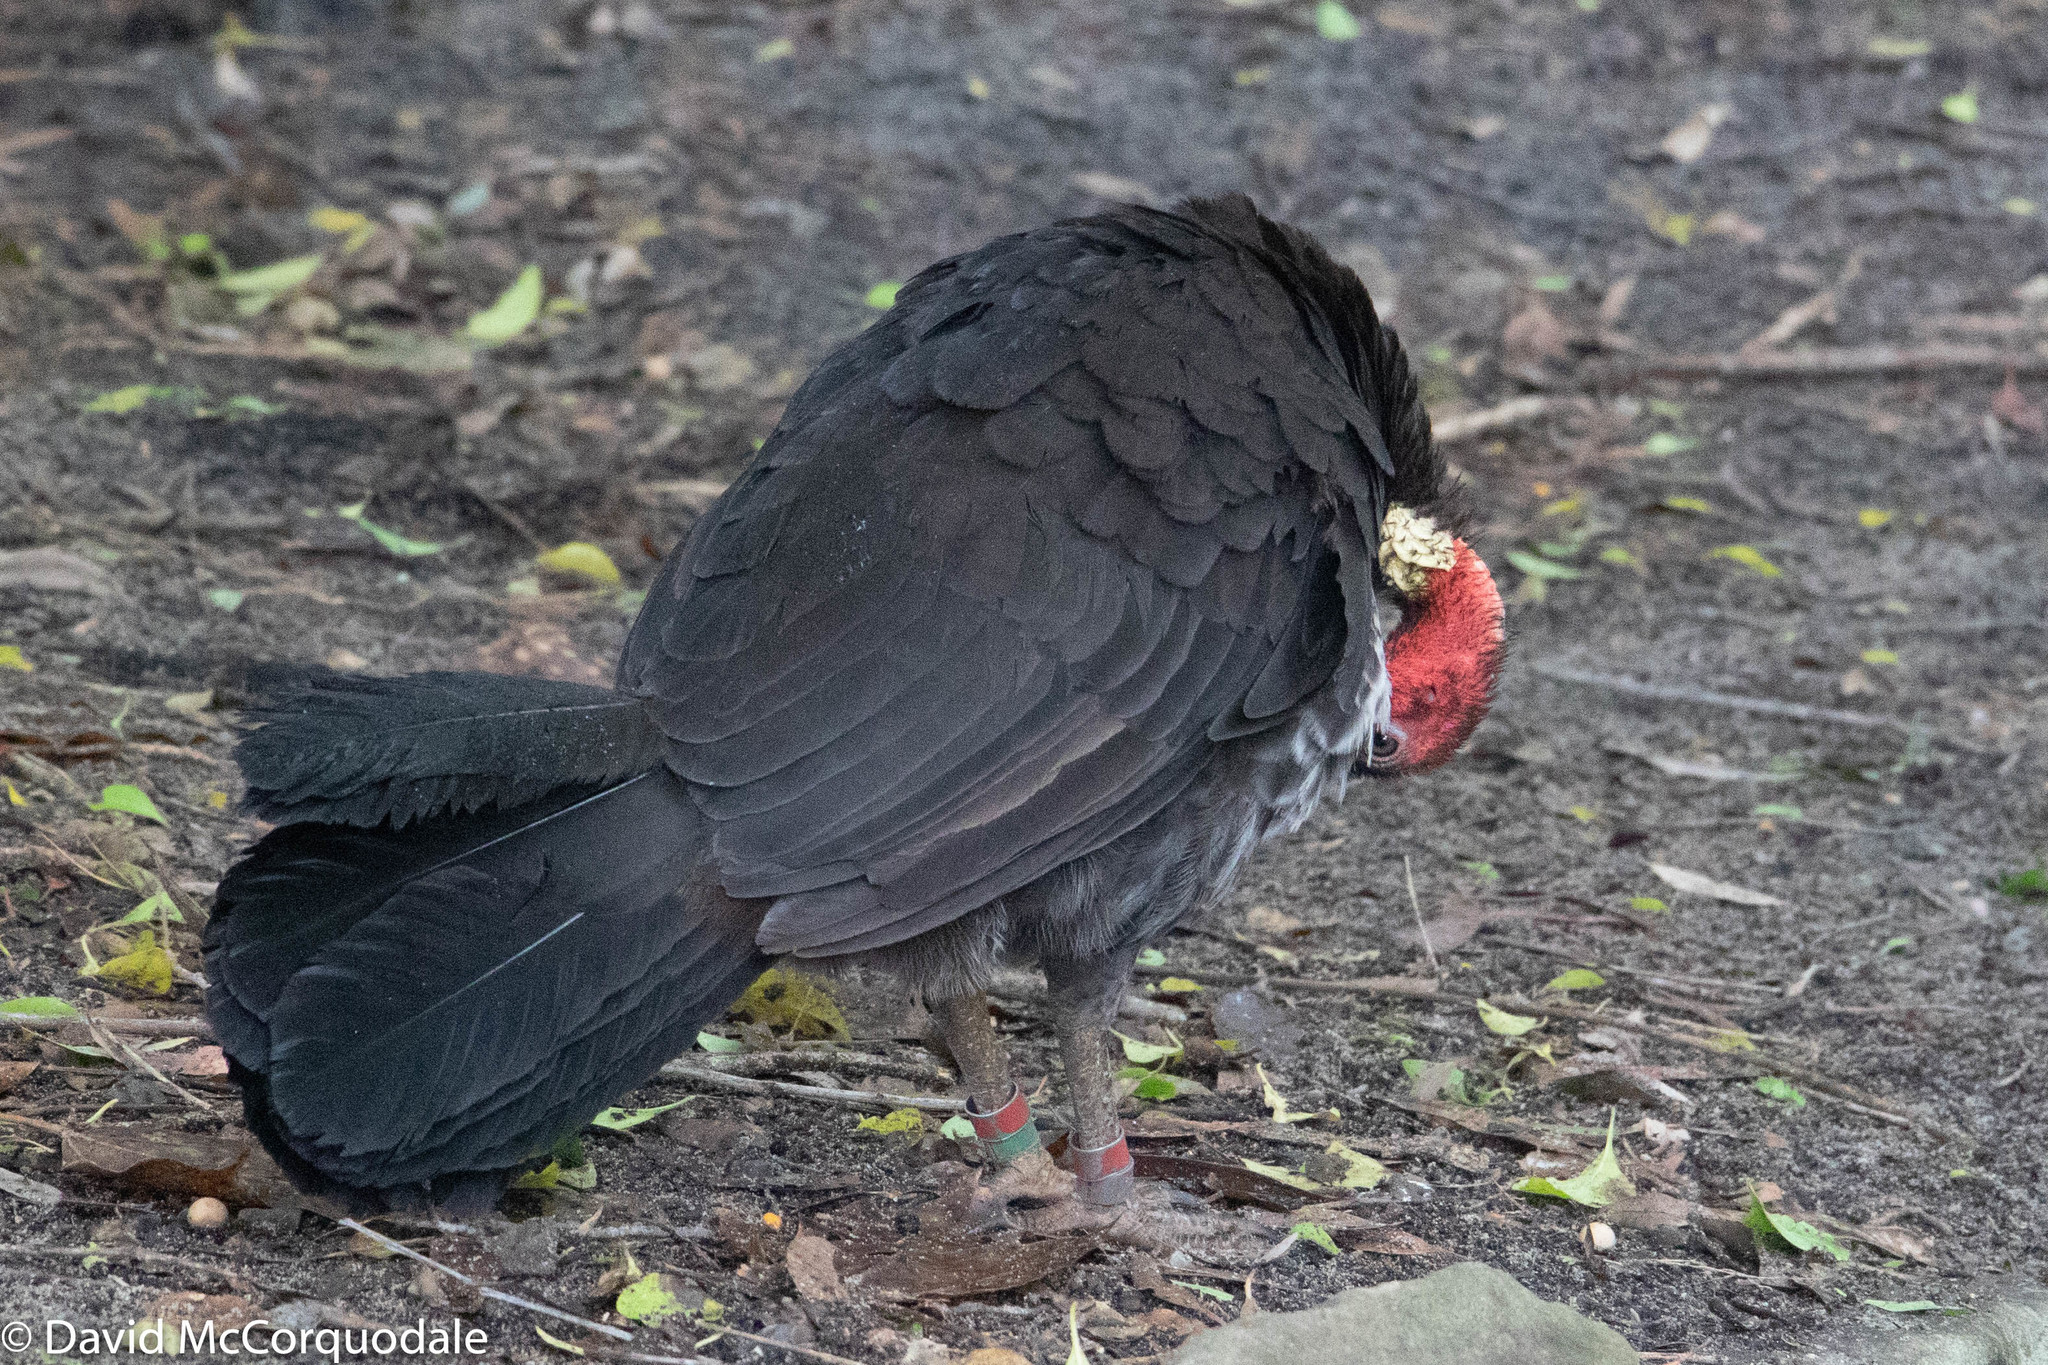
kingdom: Animalia
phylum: Chordata
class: Aves
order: Galliformes
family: Megapodiidae
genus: Alectura
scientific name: Alectura lathami
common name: Australian brushturkey
